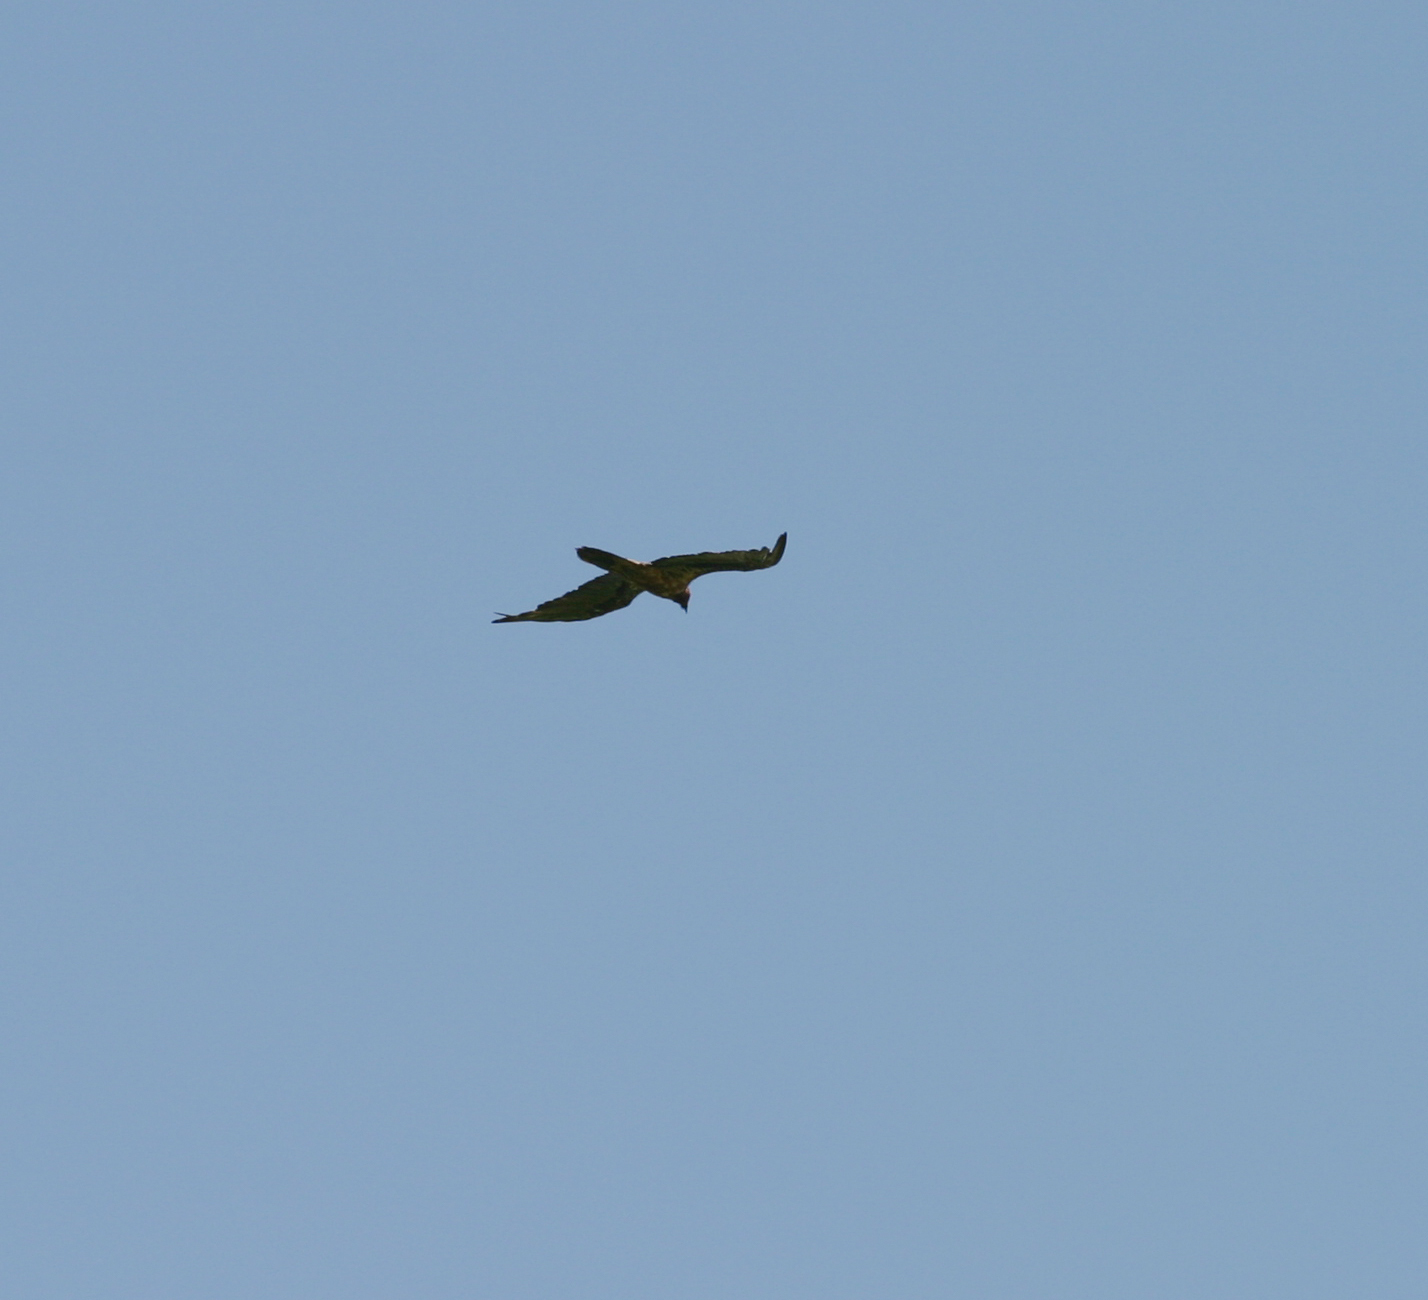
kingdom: Animalia
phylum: Chordata
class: Aves
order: Accipitriformes
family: Accipitridae
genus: Gypaetus
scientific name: Gypaetus barbatus
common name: Bearded vulture
